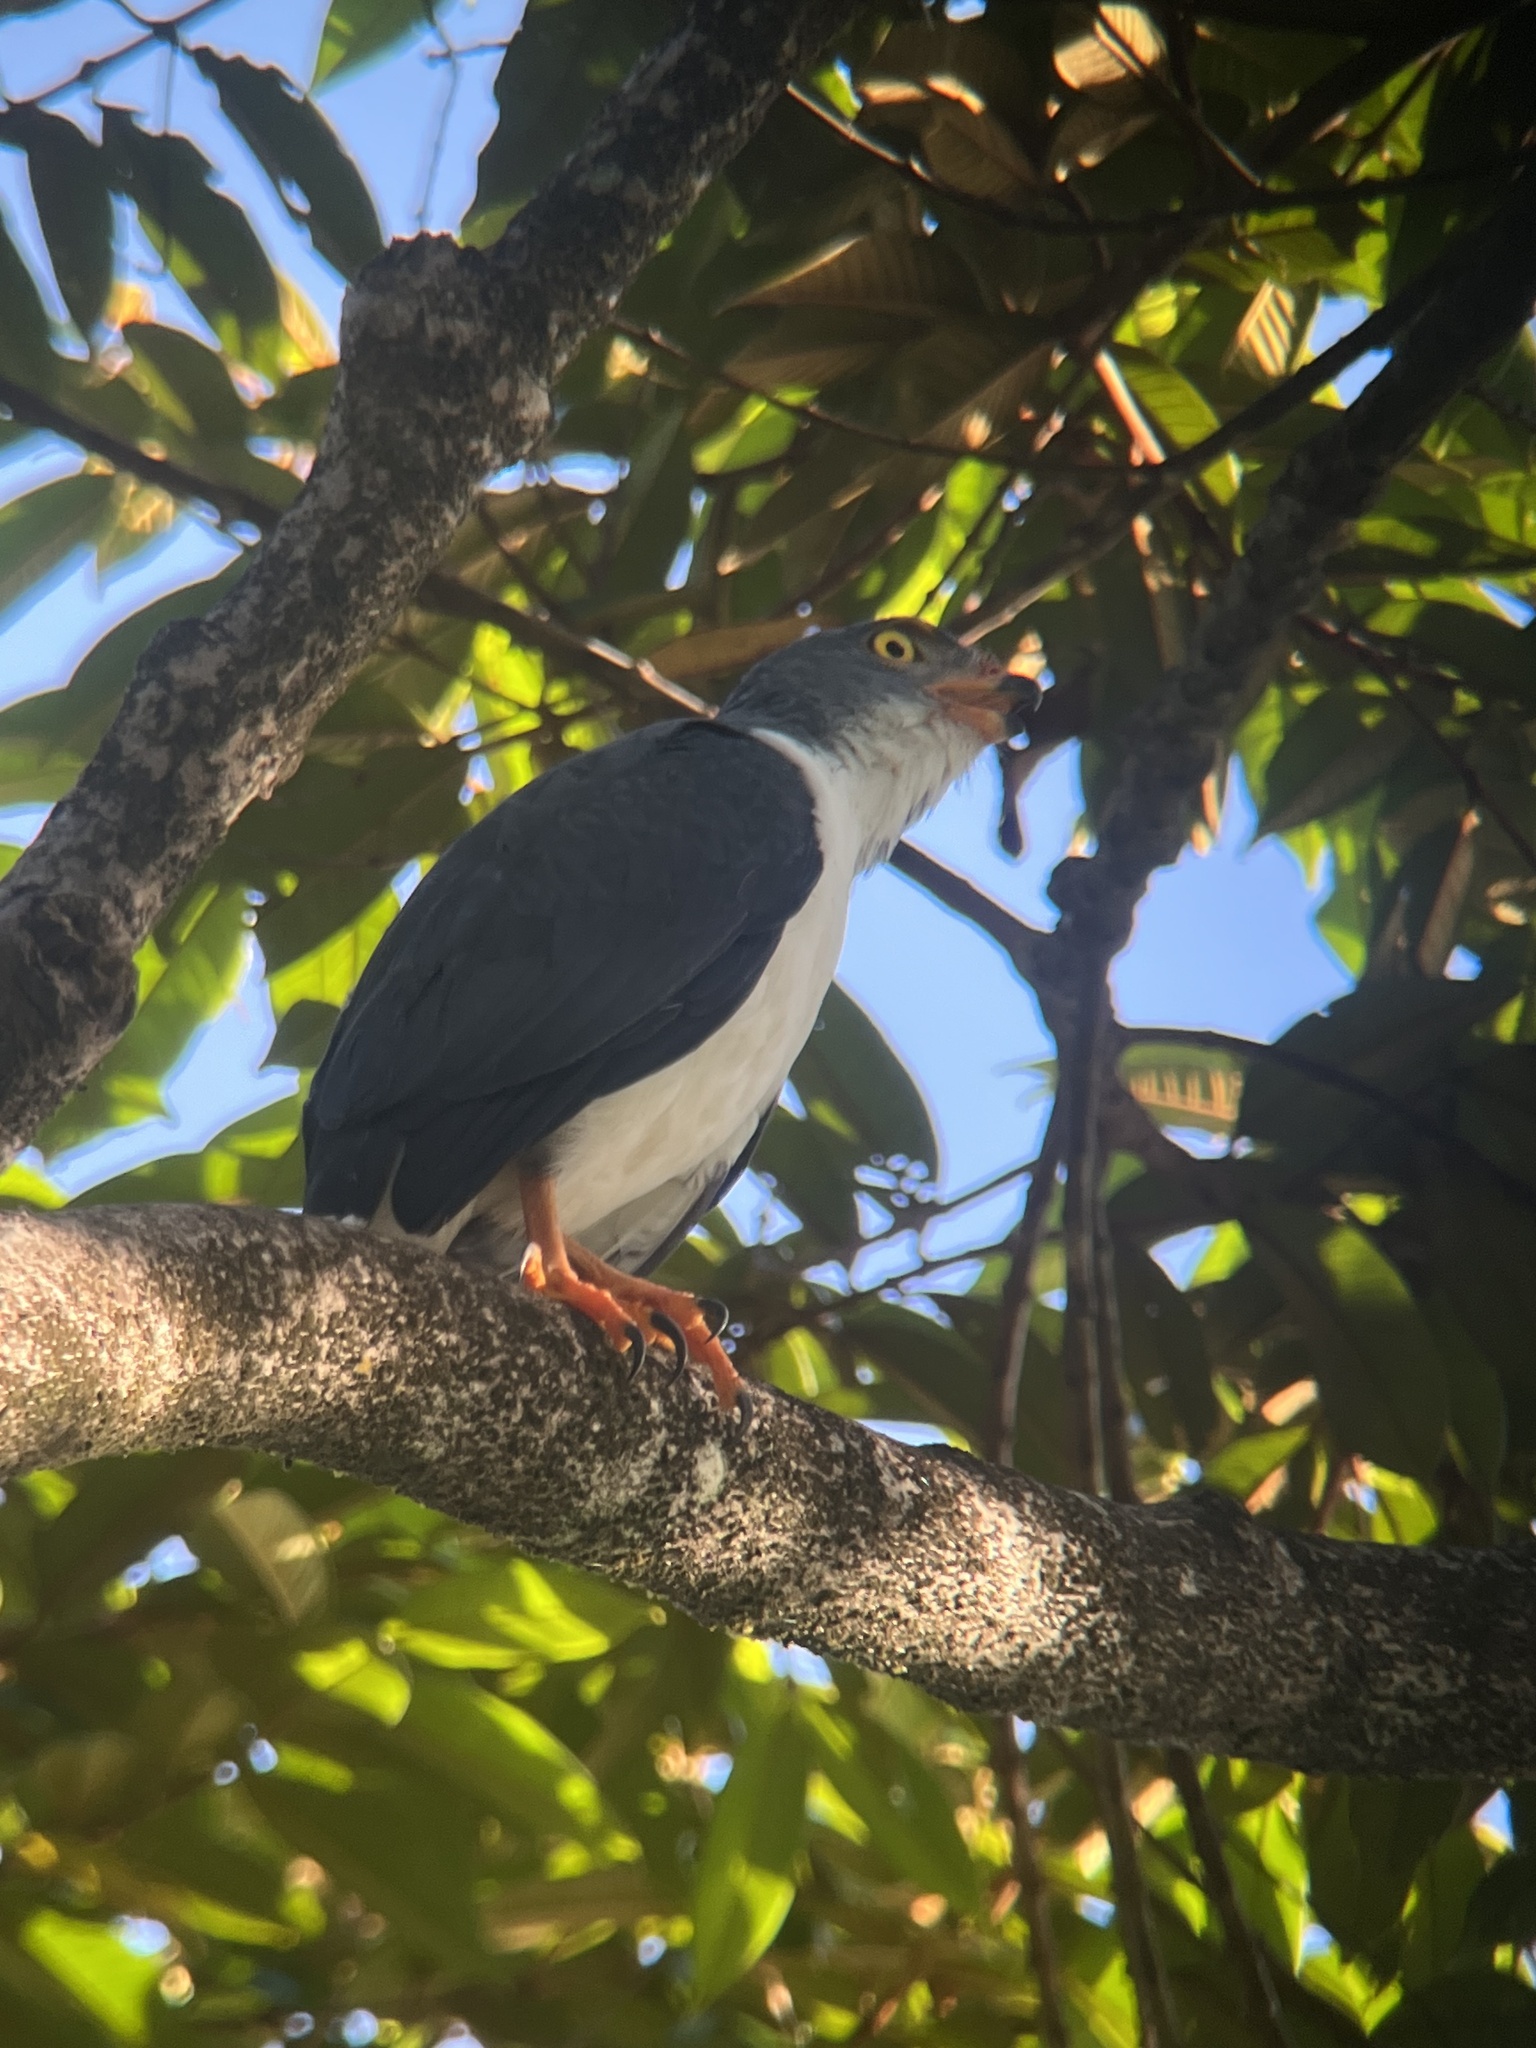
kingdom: Animalia
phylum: Chordata
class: Aves
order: Accipitriformes
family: Accipitridae
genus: Leucopternis
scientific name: Leucopternis semiplumbeus
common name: Semiplumbeous hawk
